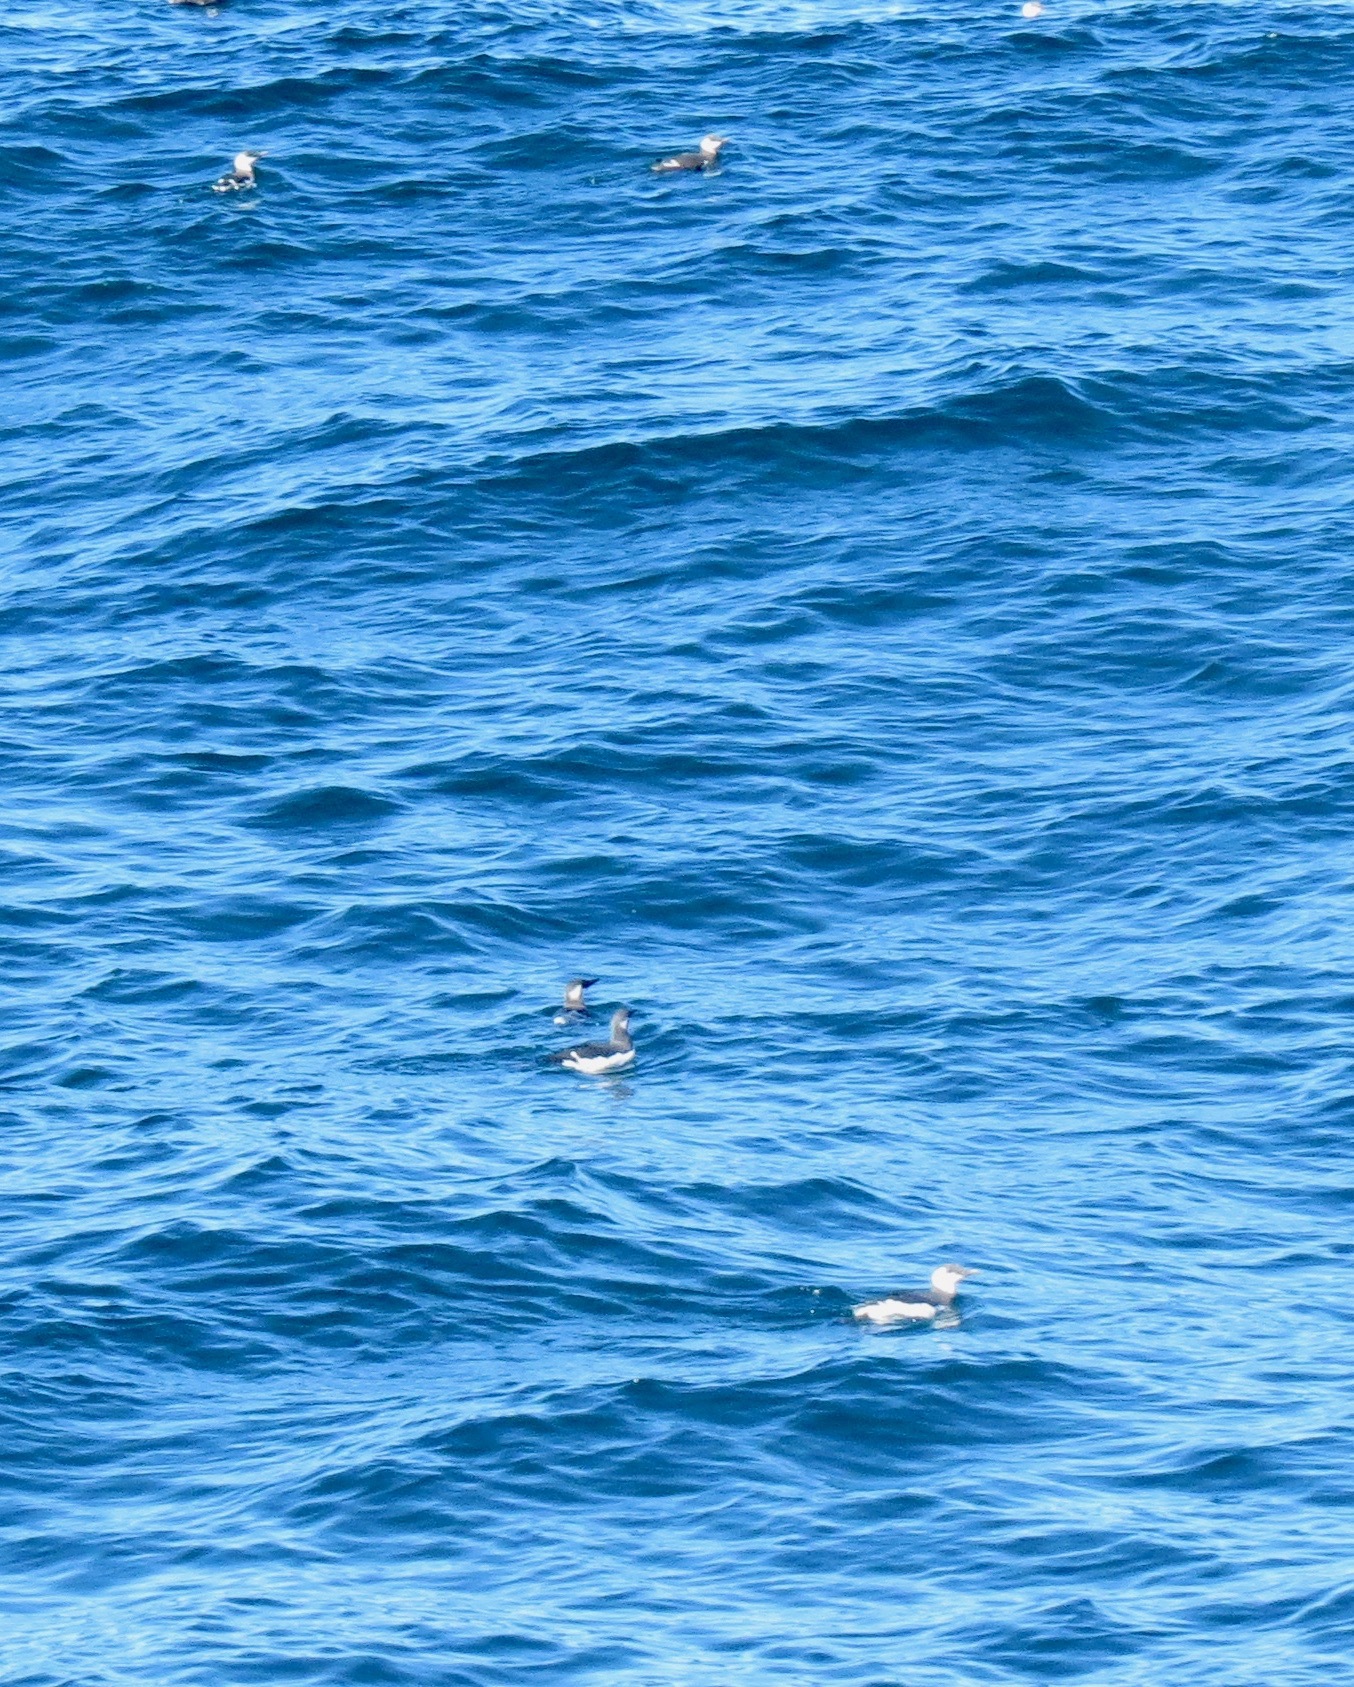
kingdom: Animalia
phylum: Chordata
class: Aves
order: Charadriiformes
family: Alcidae
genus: Uria
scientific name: Uria aalge
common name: Common murre
